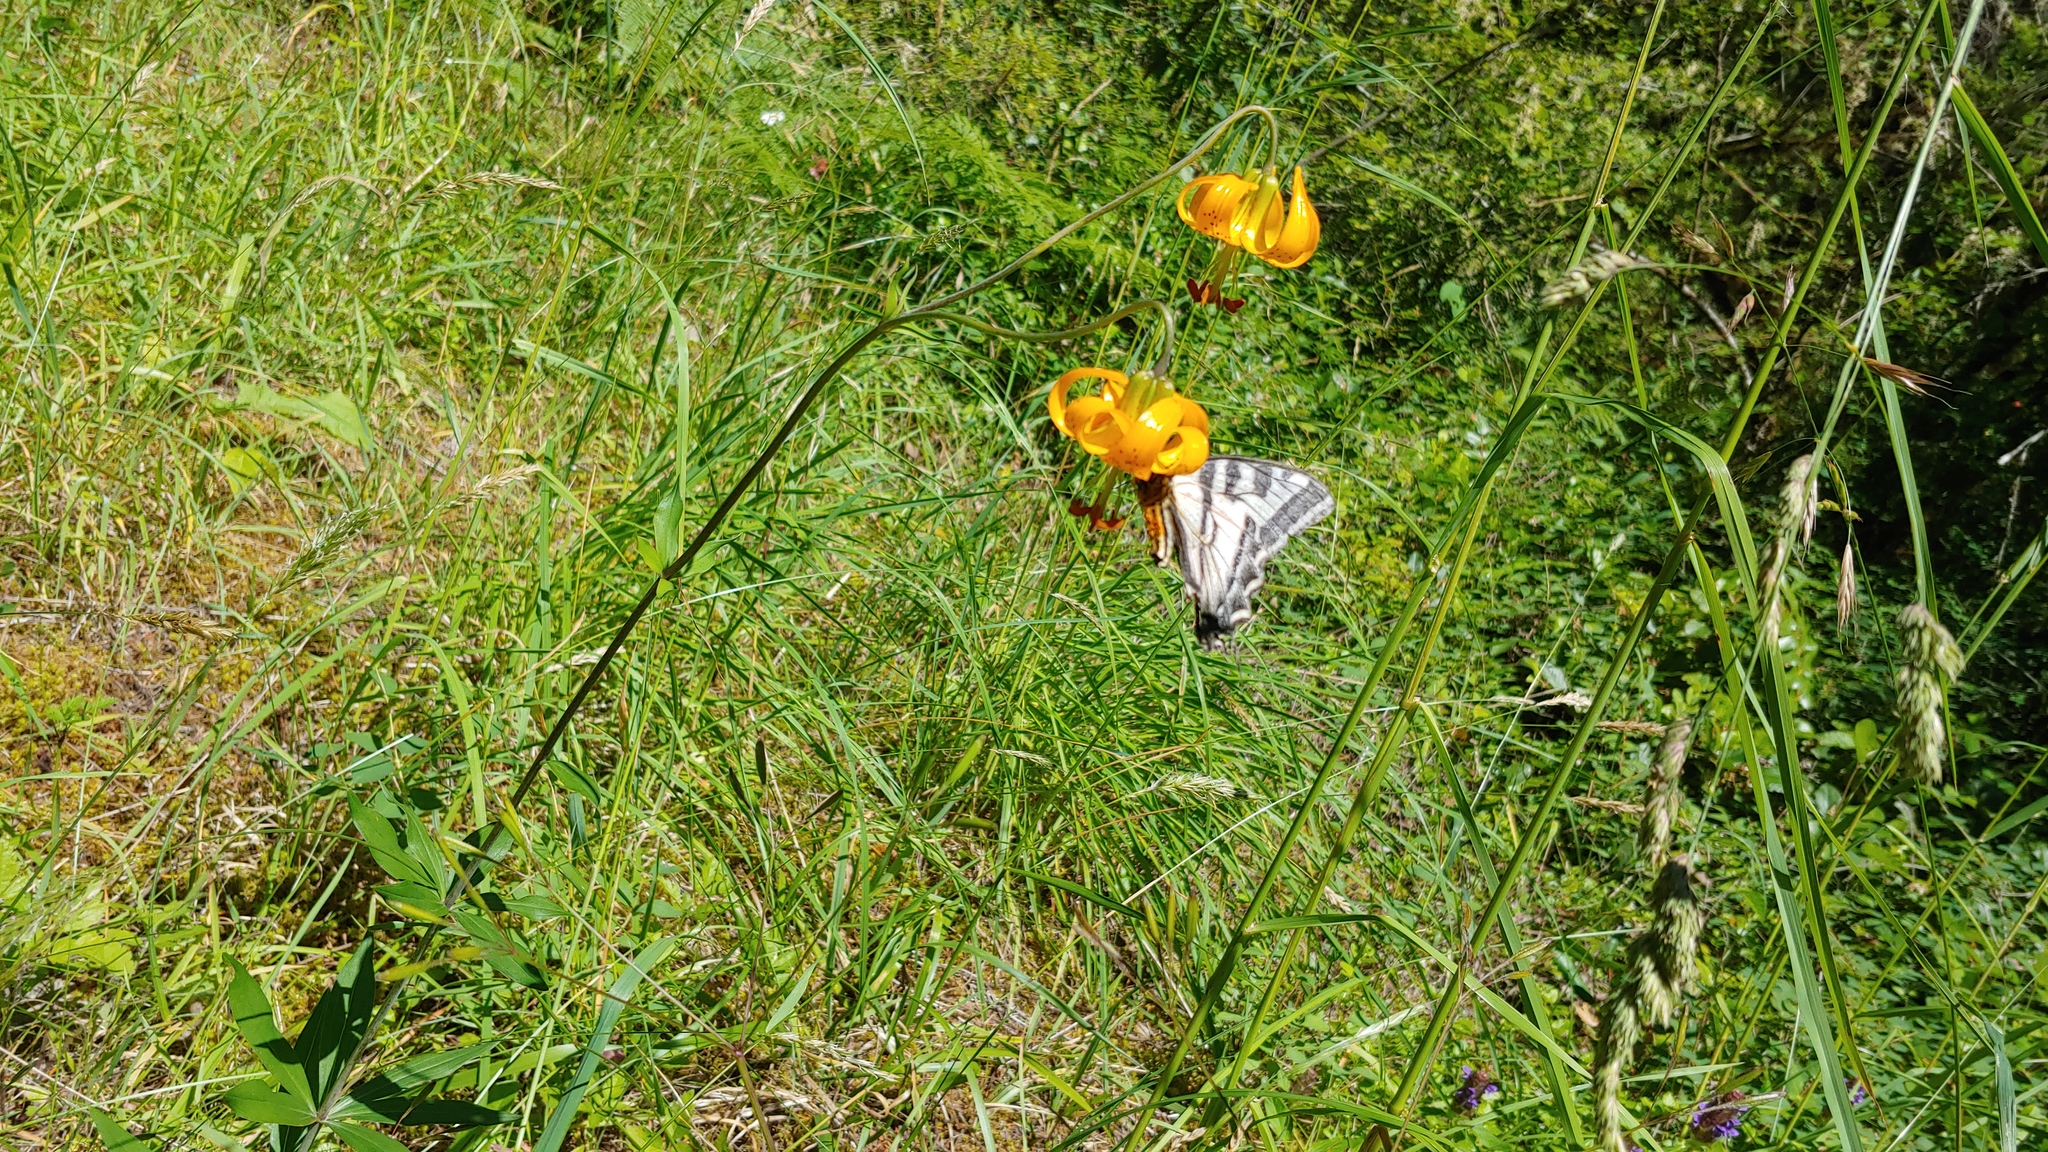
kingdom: Plantae
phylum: Tracheophyta
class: Liliopsida
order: Liliales
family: Liliaceae
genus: Lilium
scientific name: Lilium columbianum
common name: Columbia lily
